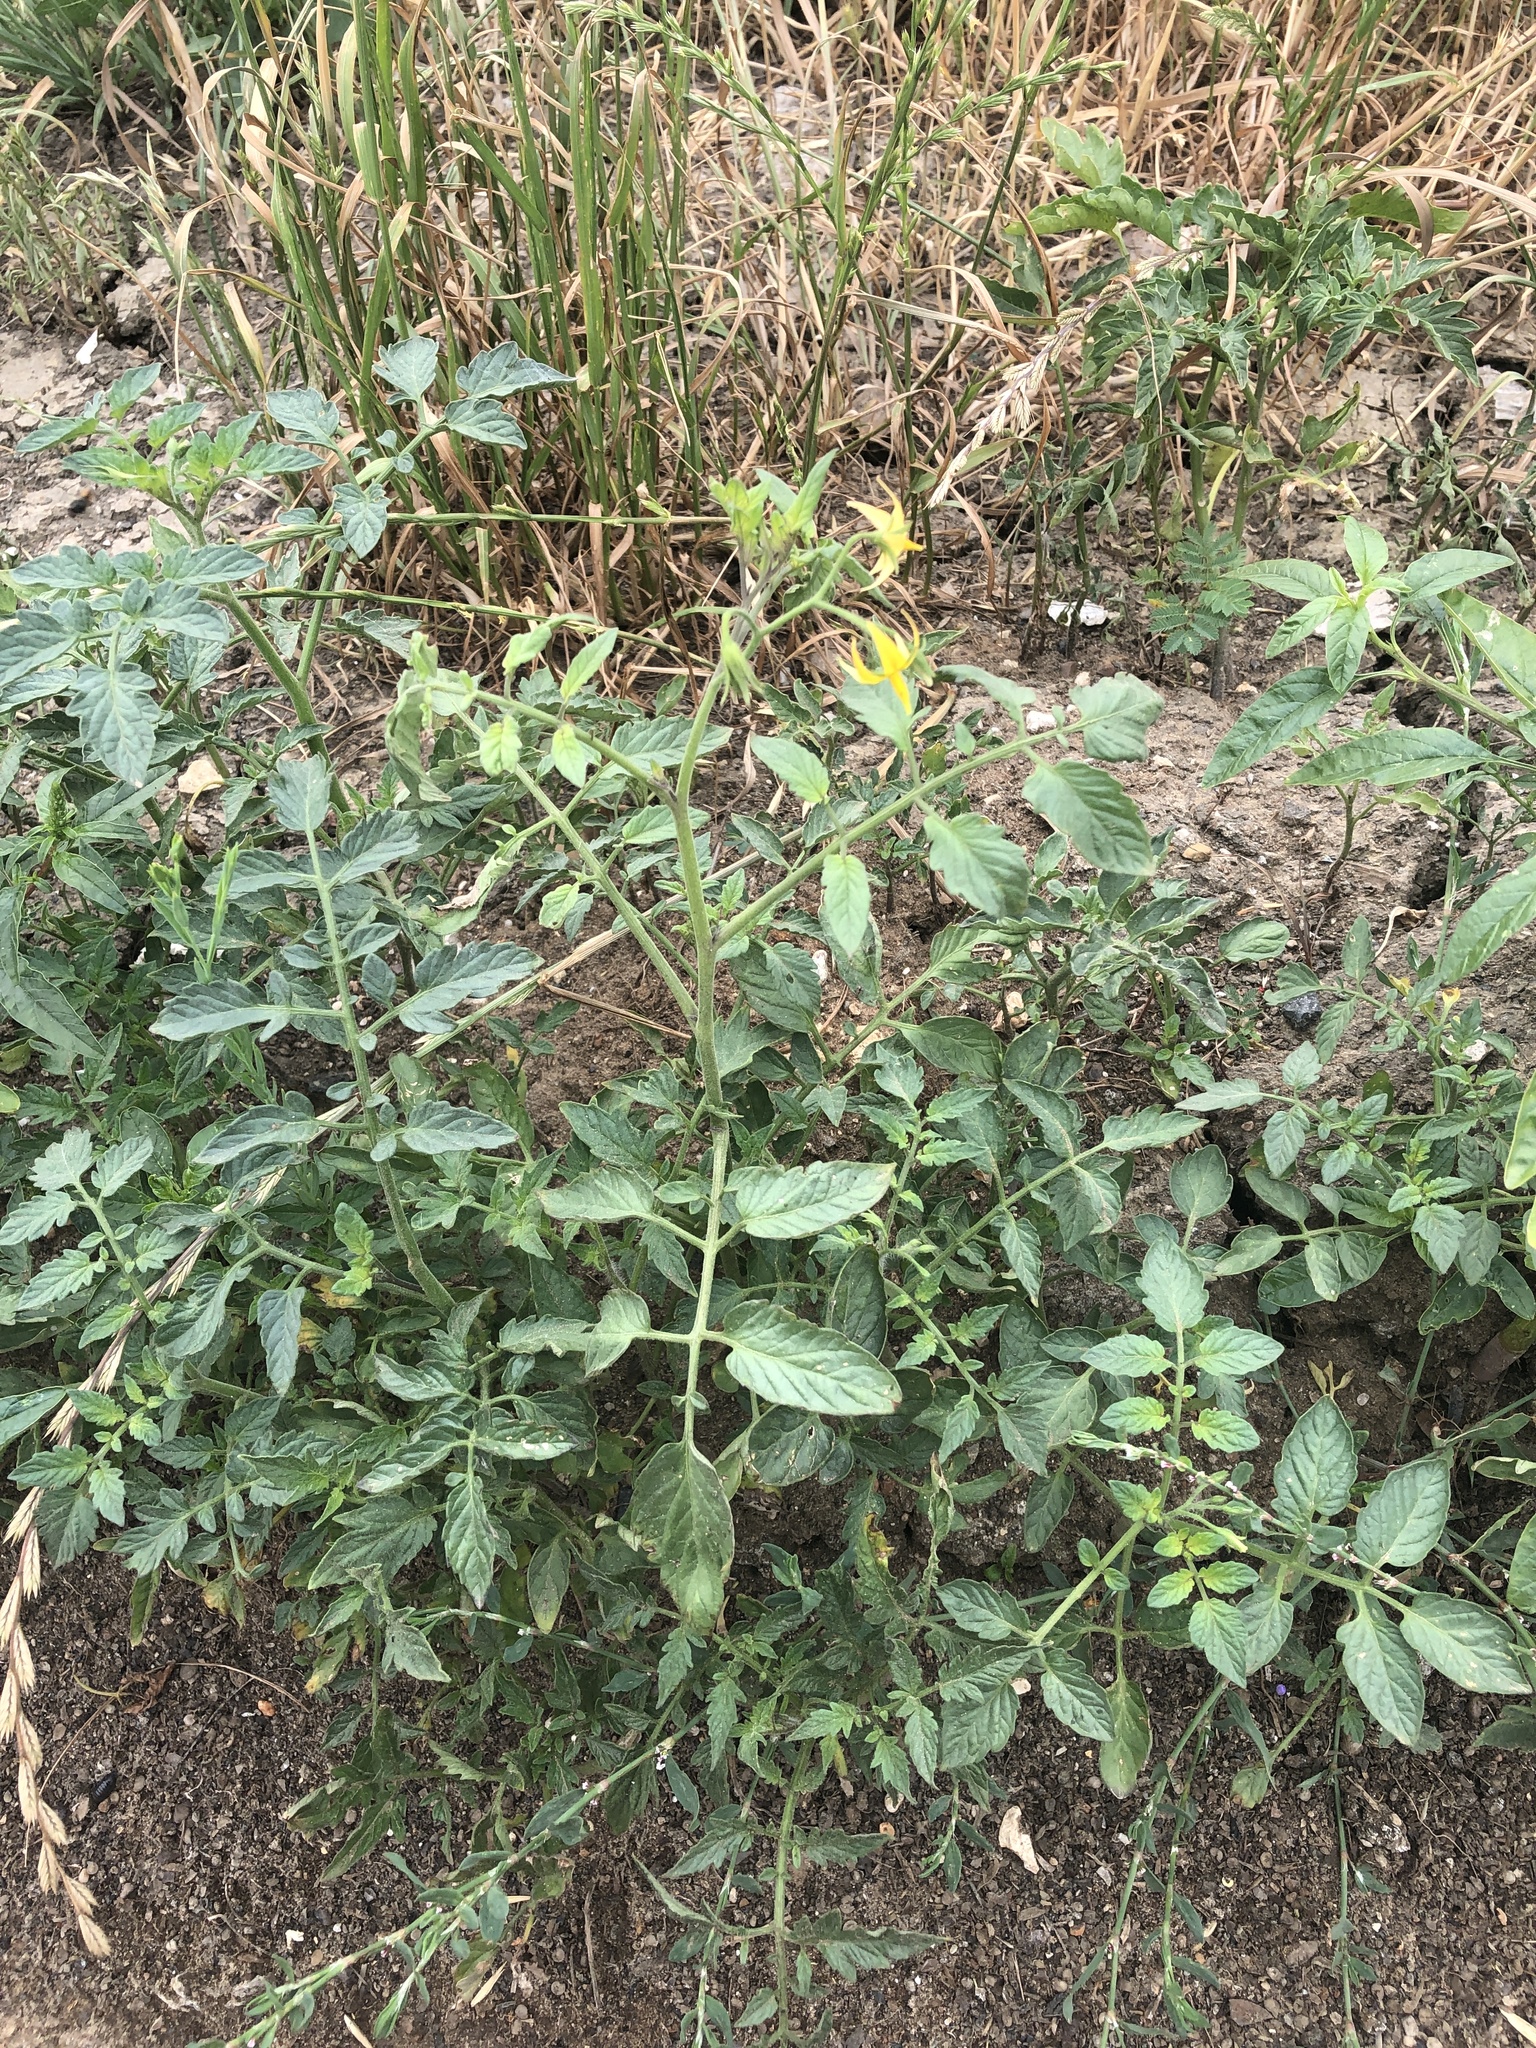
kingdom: Plantae
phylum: Tracheophyta
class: Magnoliopsida
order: Solanales
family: Solanaceae
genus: Solanum
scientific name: Solanum lycopersicum
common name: Garden tomato
